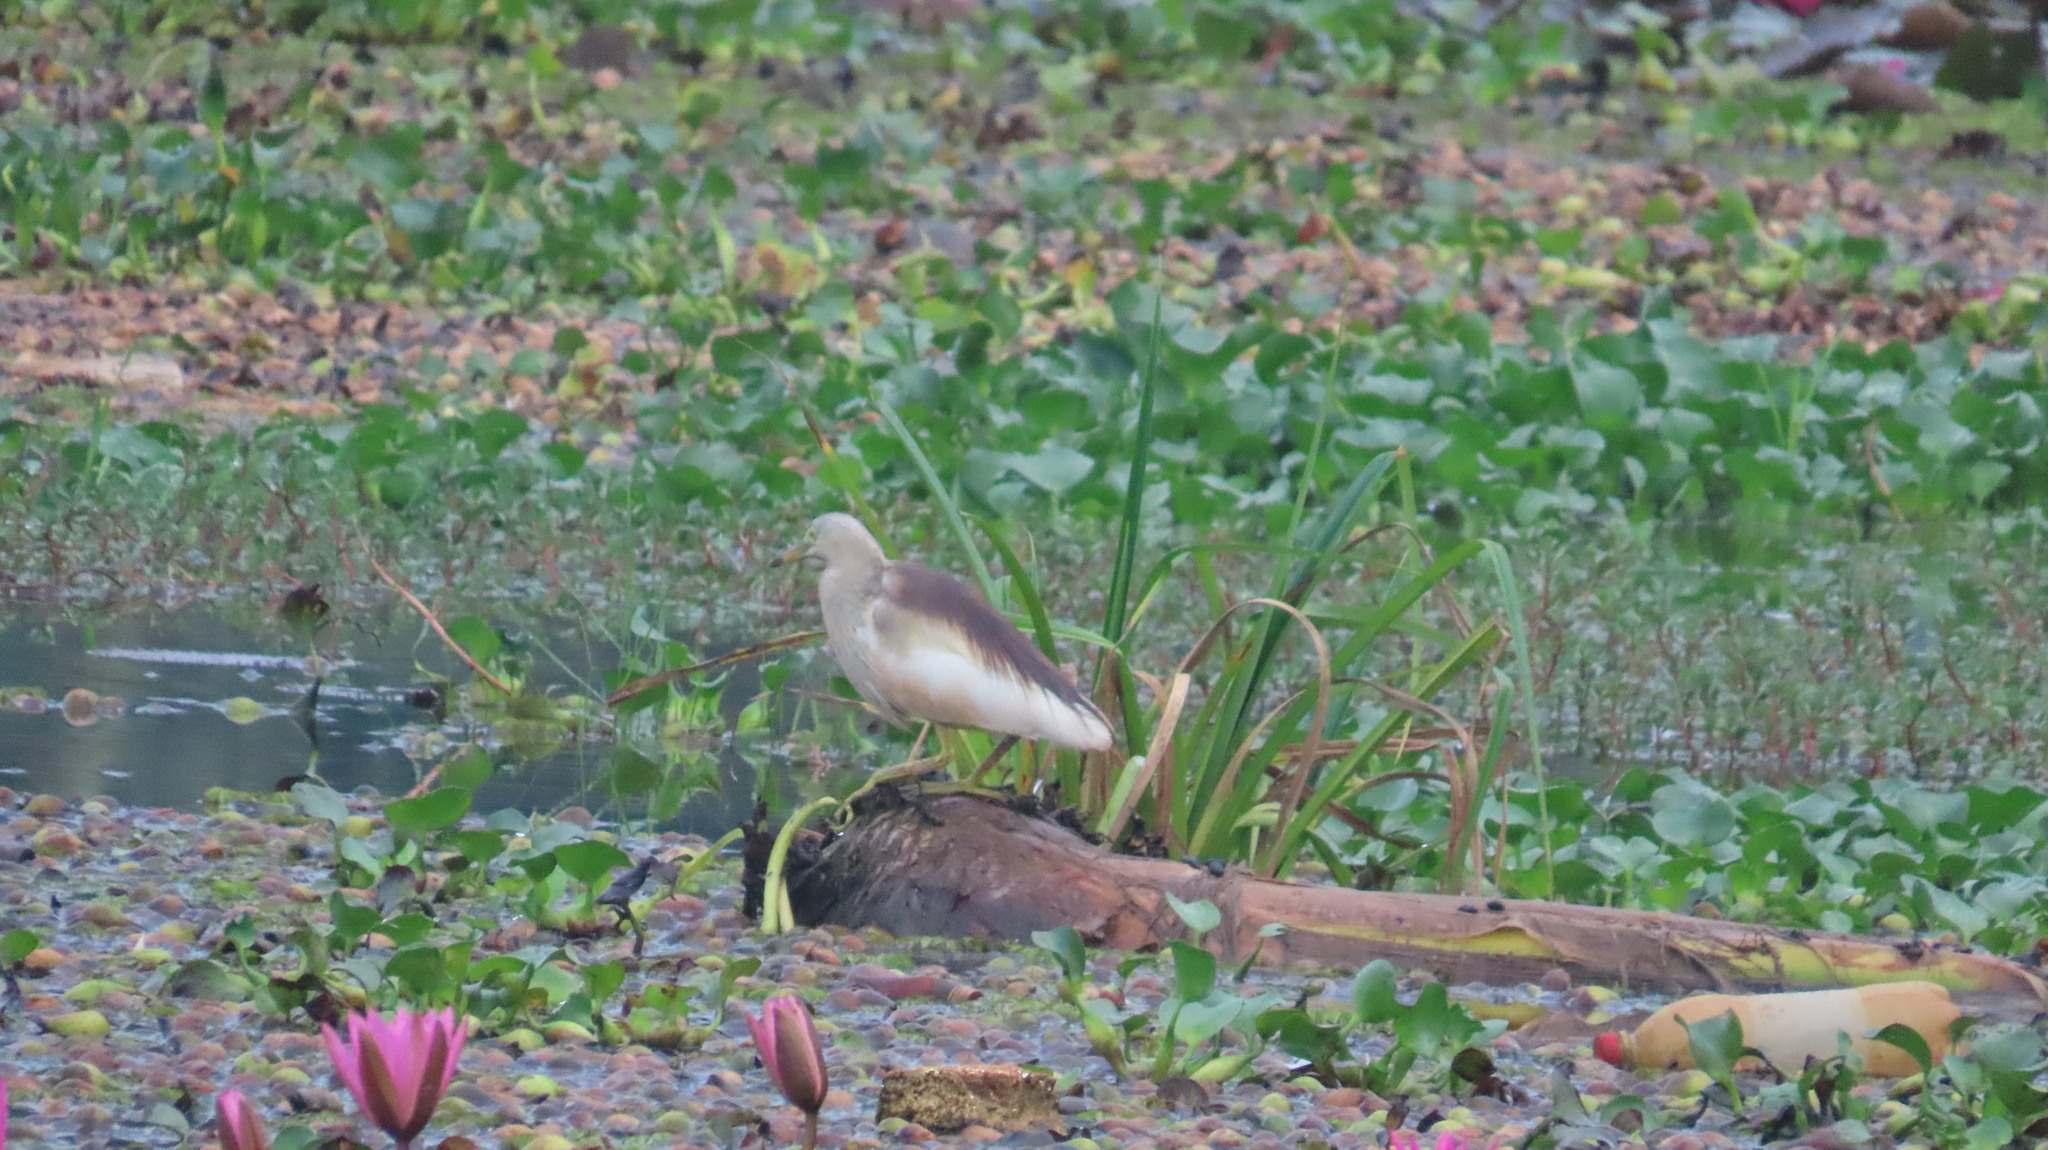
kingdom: Animalia
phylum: Chordata
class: Aves
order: Pelecaniformes
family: Ardeidae
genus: Ardeola
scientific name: Ardeola grayii
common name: Indian pond heron
